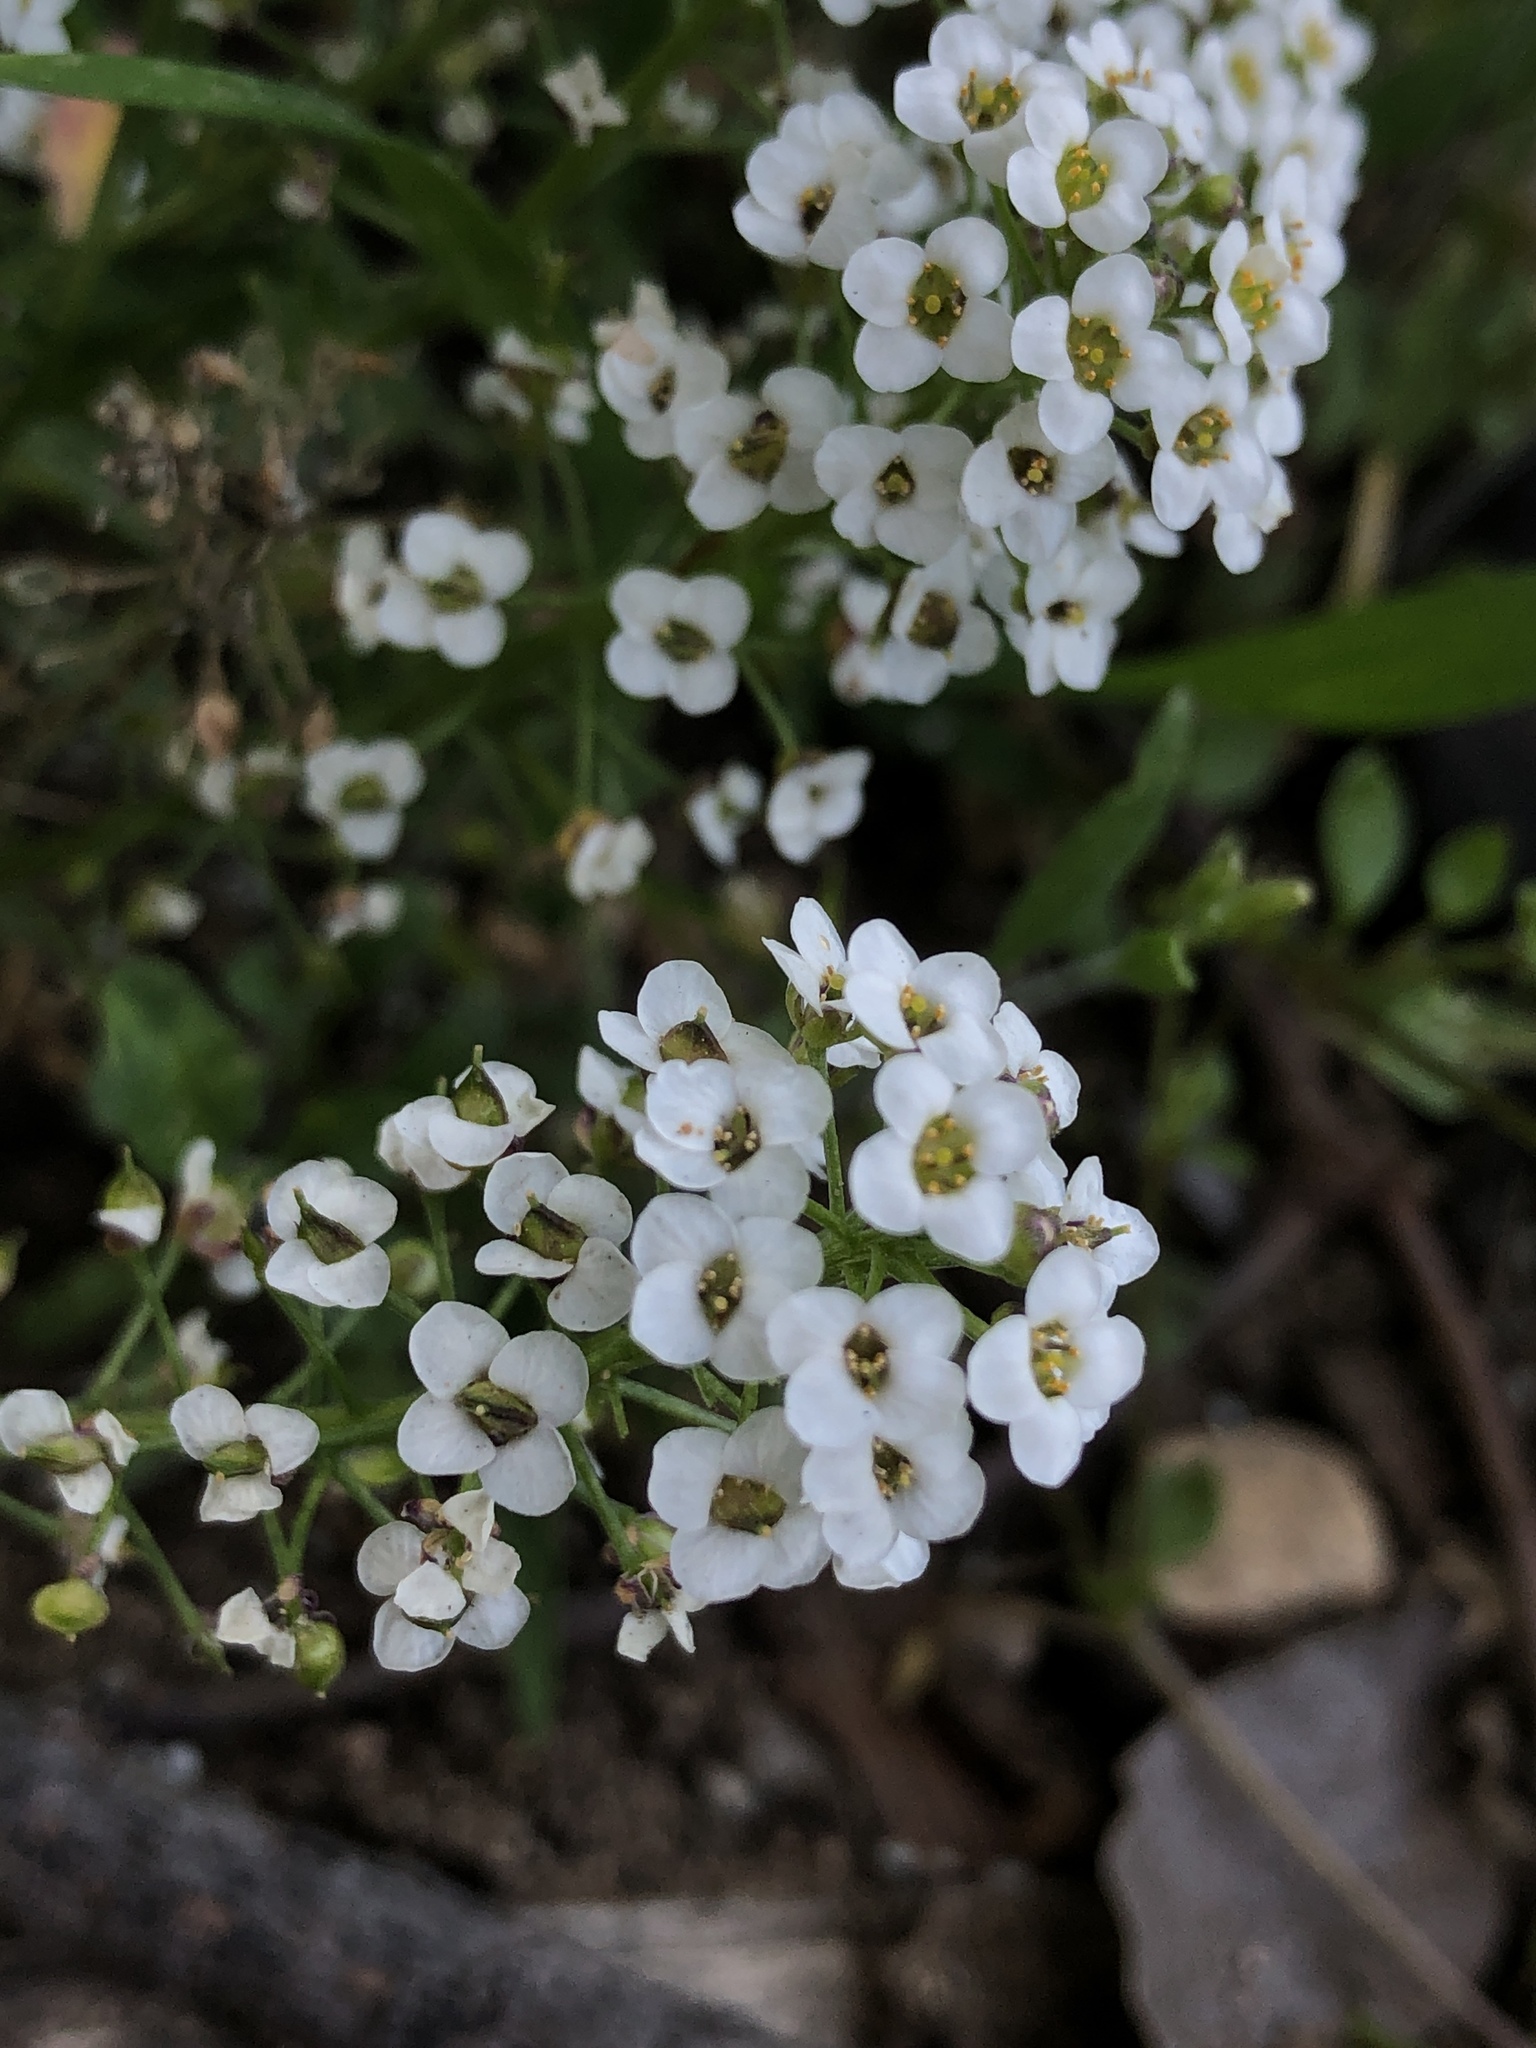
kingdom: Plantae
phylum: Tracheophyta
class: Magnoliopsida
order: Brassicales
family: Brassicaceae
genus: Lobularia
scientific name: Lobularia maritima
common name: Sweet alison
